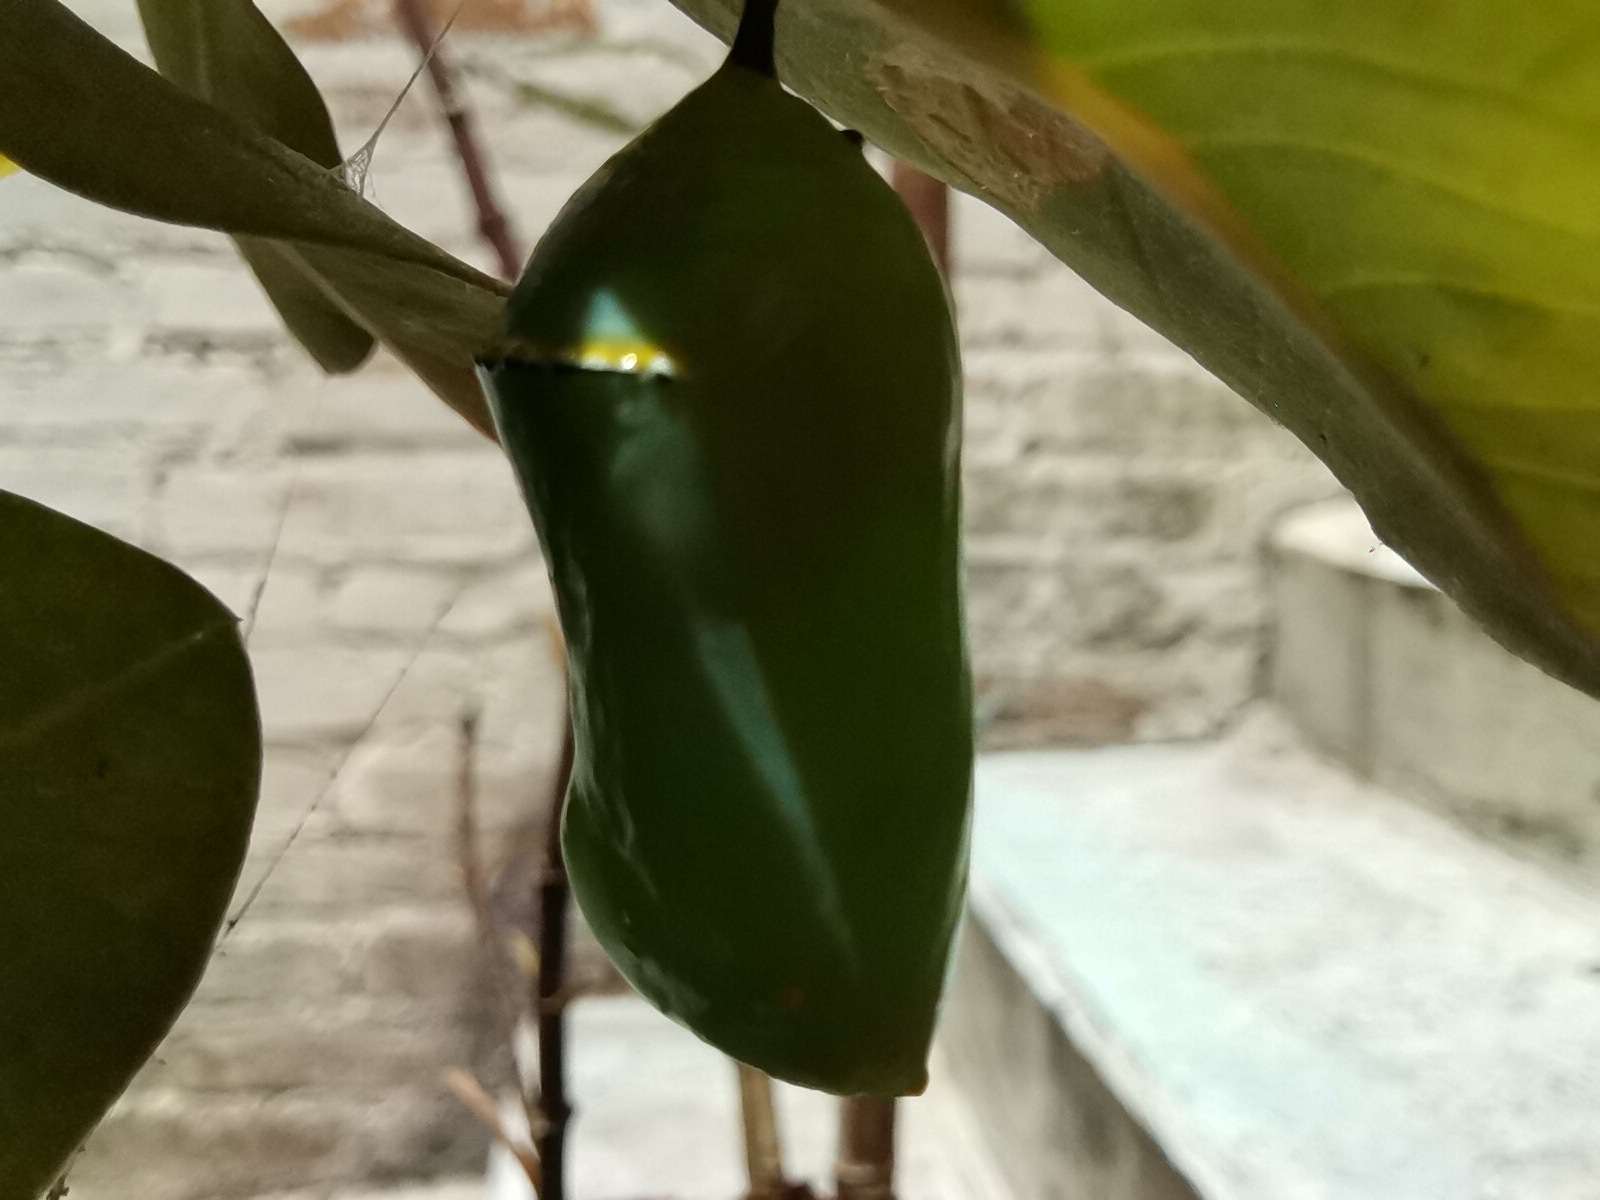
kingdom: Animalia
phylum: Arthropoda
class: Insecta
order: Lepidoptera
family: Nymphalidae
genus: Danaus
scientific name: Danaus plexippus
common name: Monarch
